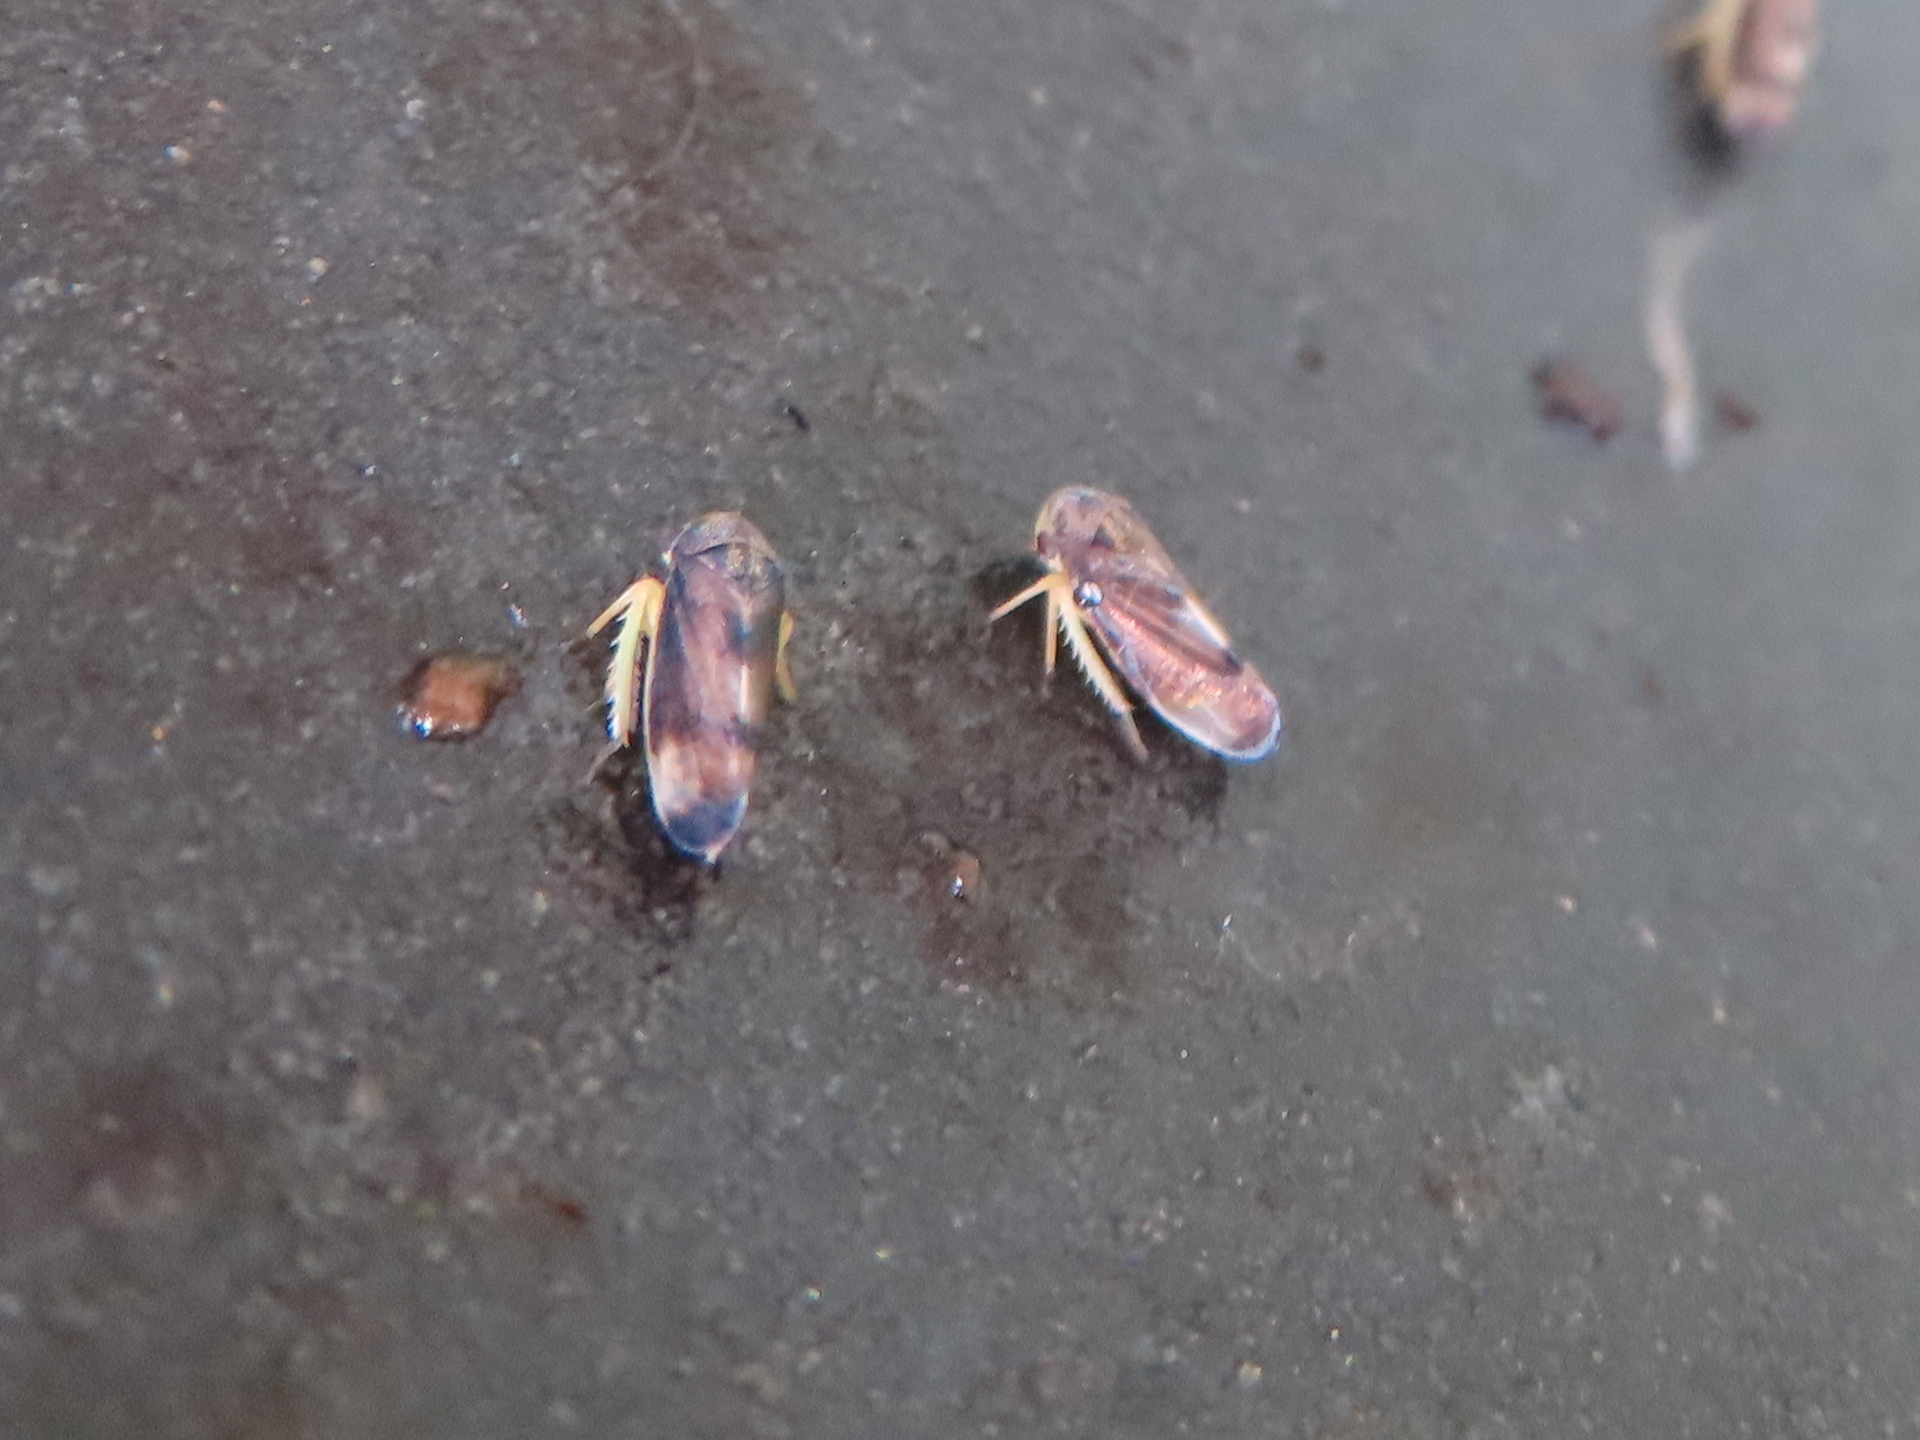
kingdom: Animalia
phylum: Arthropoda
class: Insecta
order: Hemiptera
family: Cicadellidae
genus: Pediopsoides
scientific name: Pediopsoides distinctus
